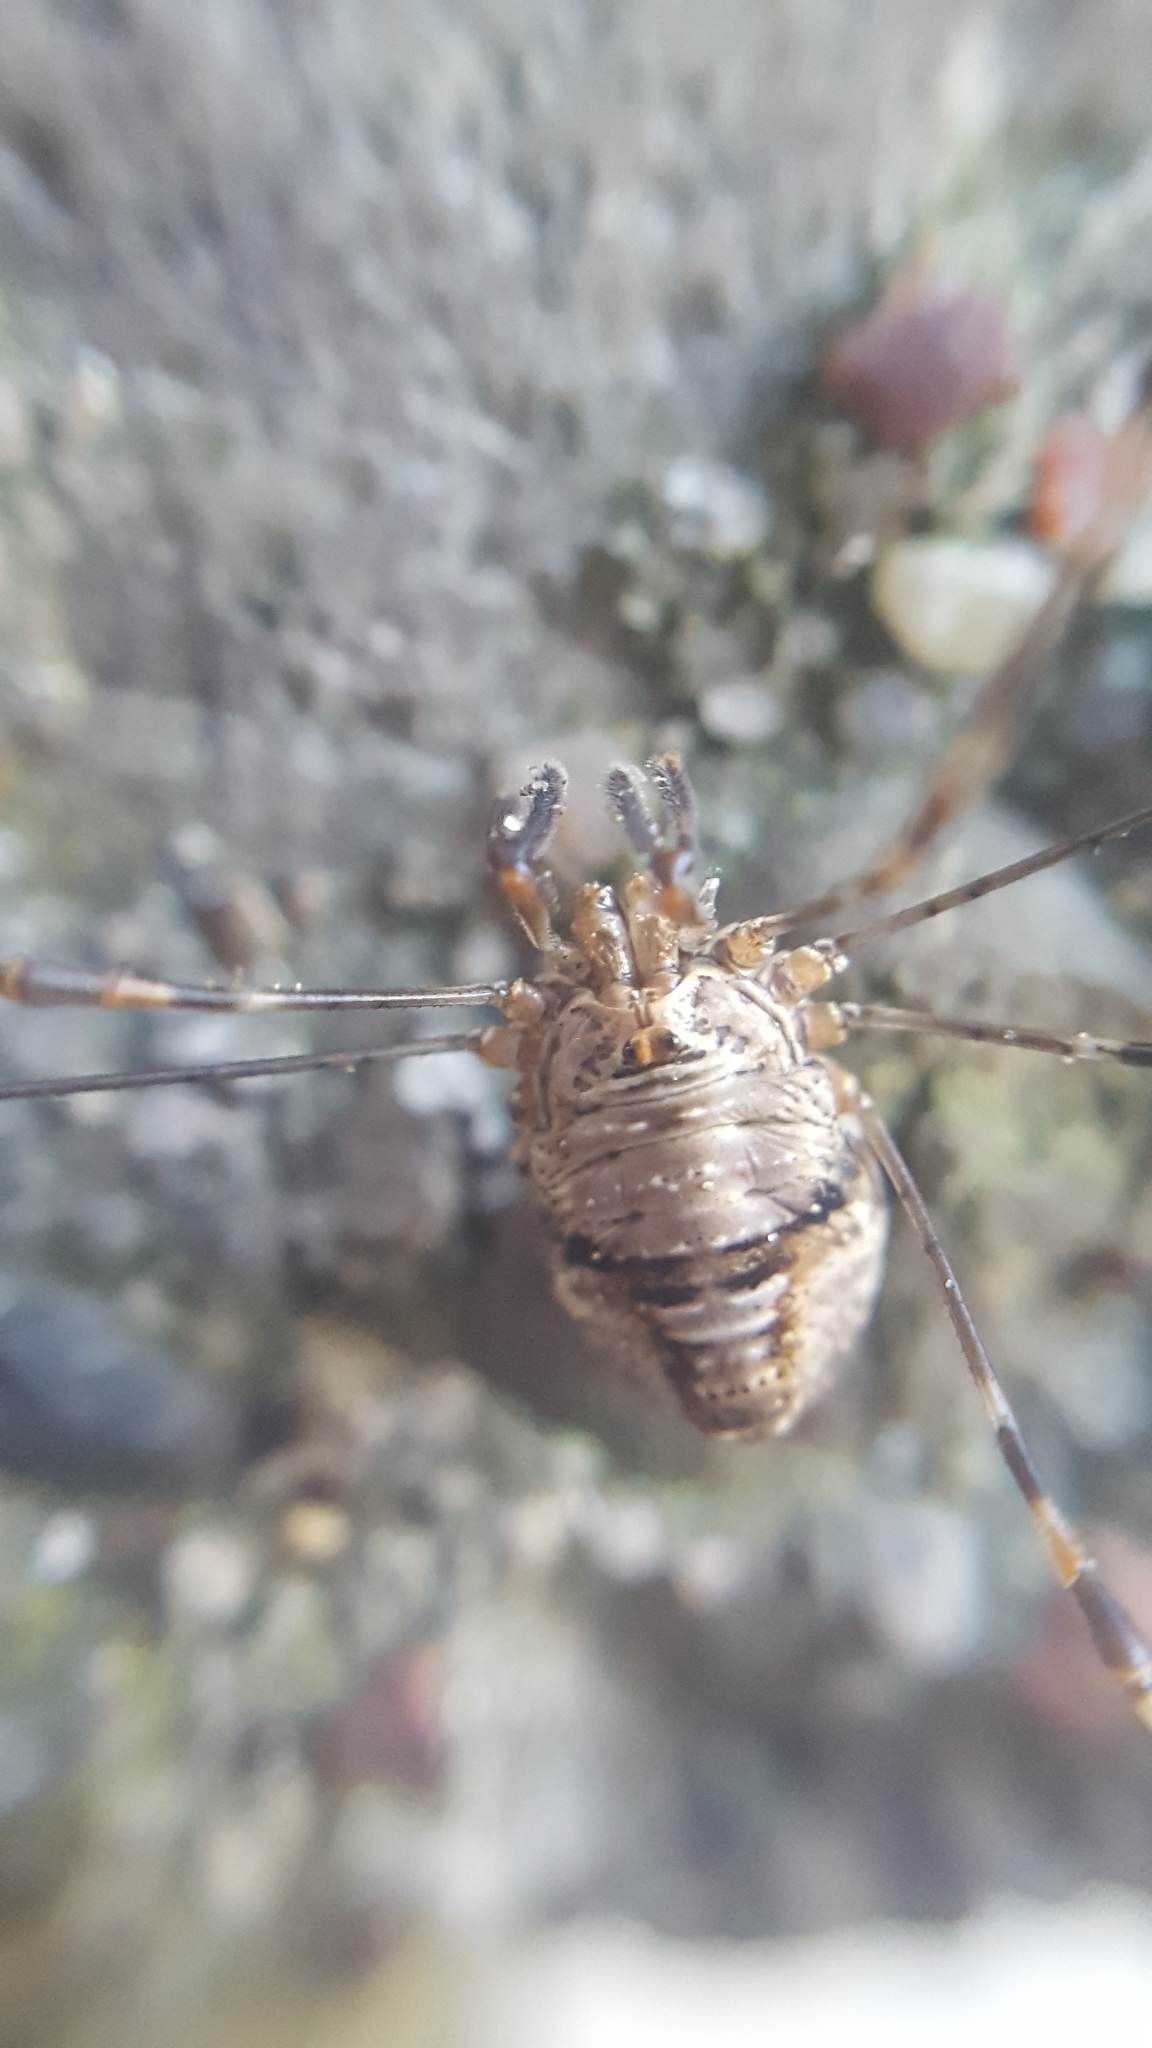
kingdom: Animalia
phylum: Arthropoda
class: Arachnida
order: Opiliones
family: Phalangiidae
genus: Dicranopalpus
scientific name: Dicranopalpus ramosus
